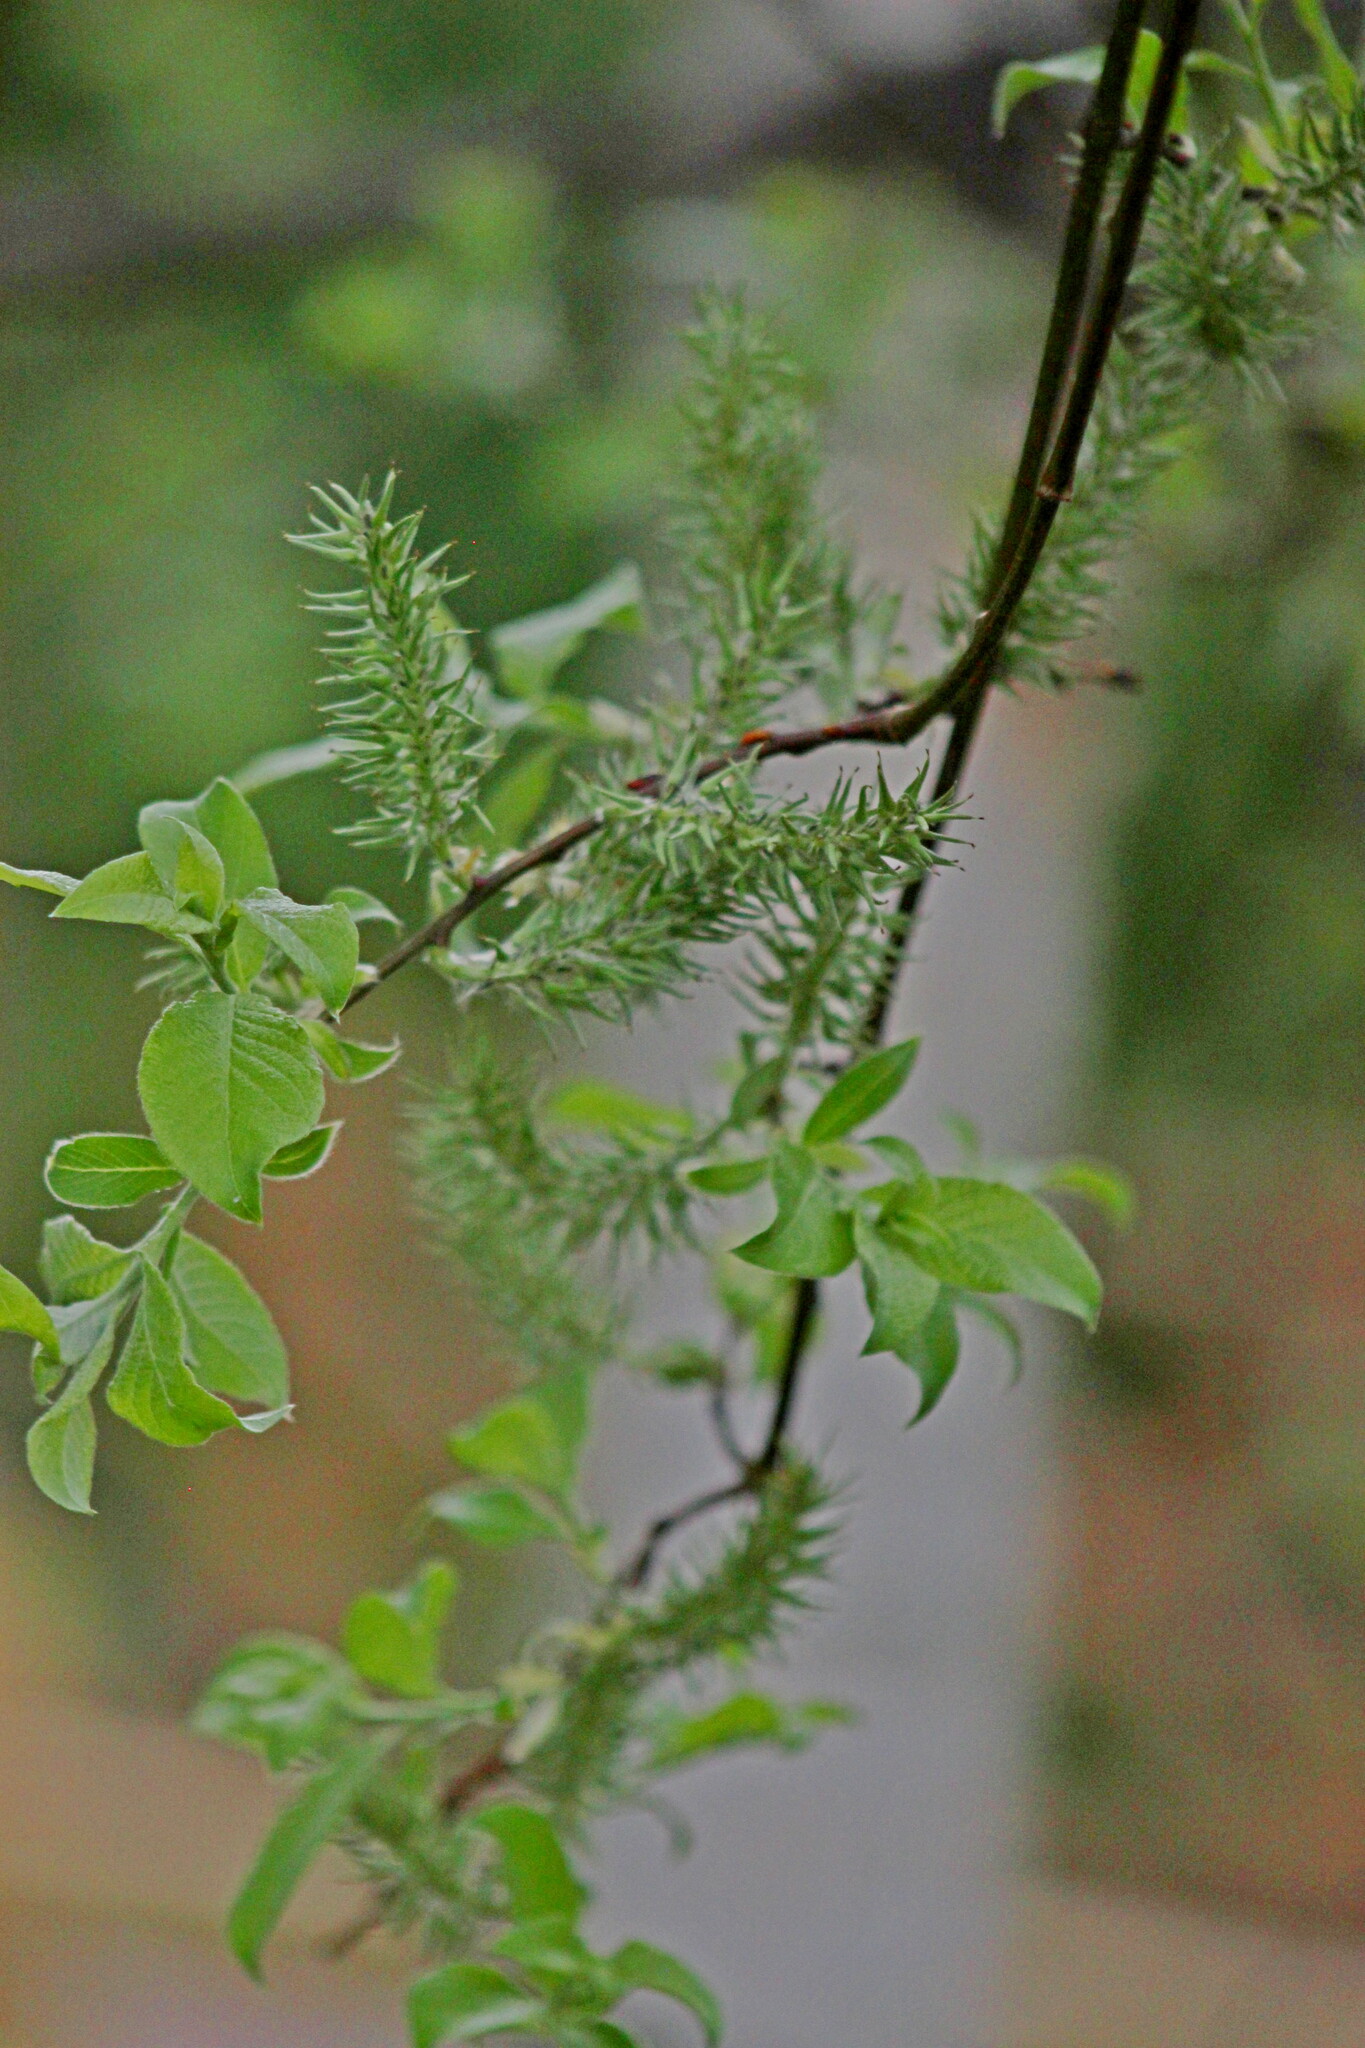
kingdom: Plantae
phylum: Tracheophyta
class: Magnoliopsida
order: Malpighiales
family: Salicaceae
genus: Salix
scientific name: Salix caprea
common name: Goat willow
